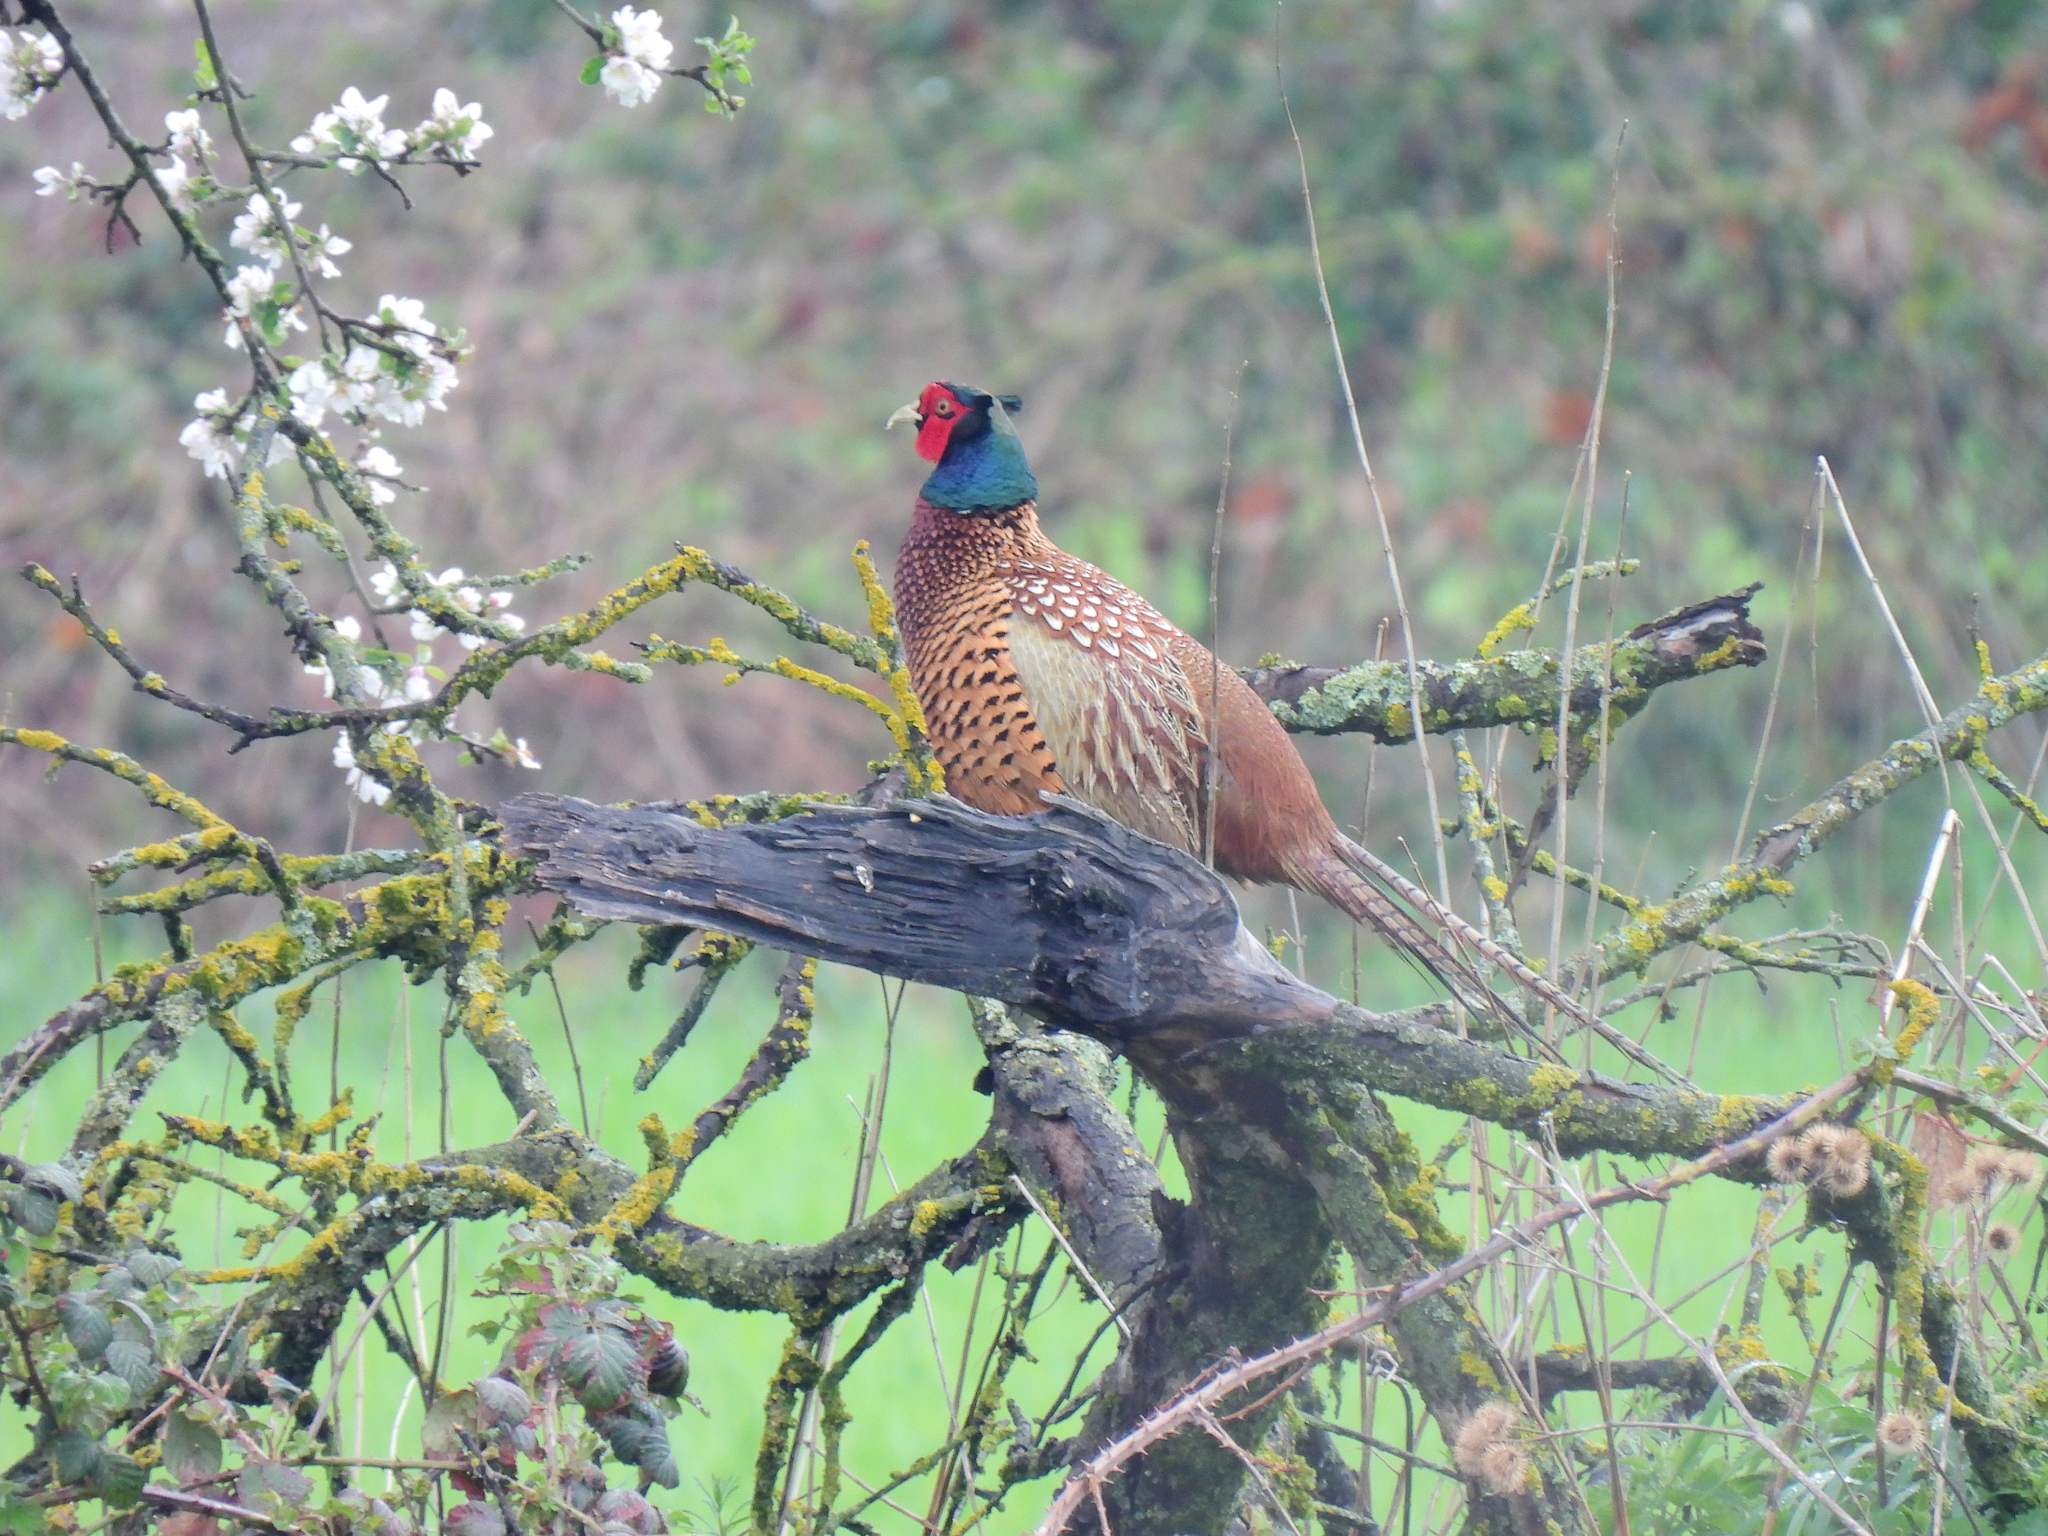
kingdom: Animalia
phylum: Chordata
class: Aves
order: Galliformes
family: Phasianidae
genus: Phasianus
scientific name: Phasianus colchicus
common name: Common pheasant
